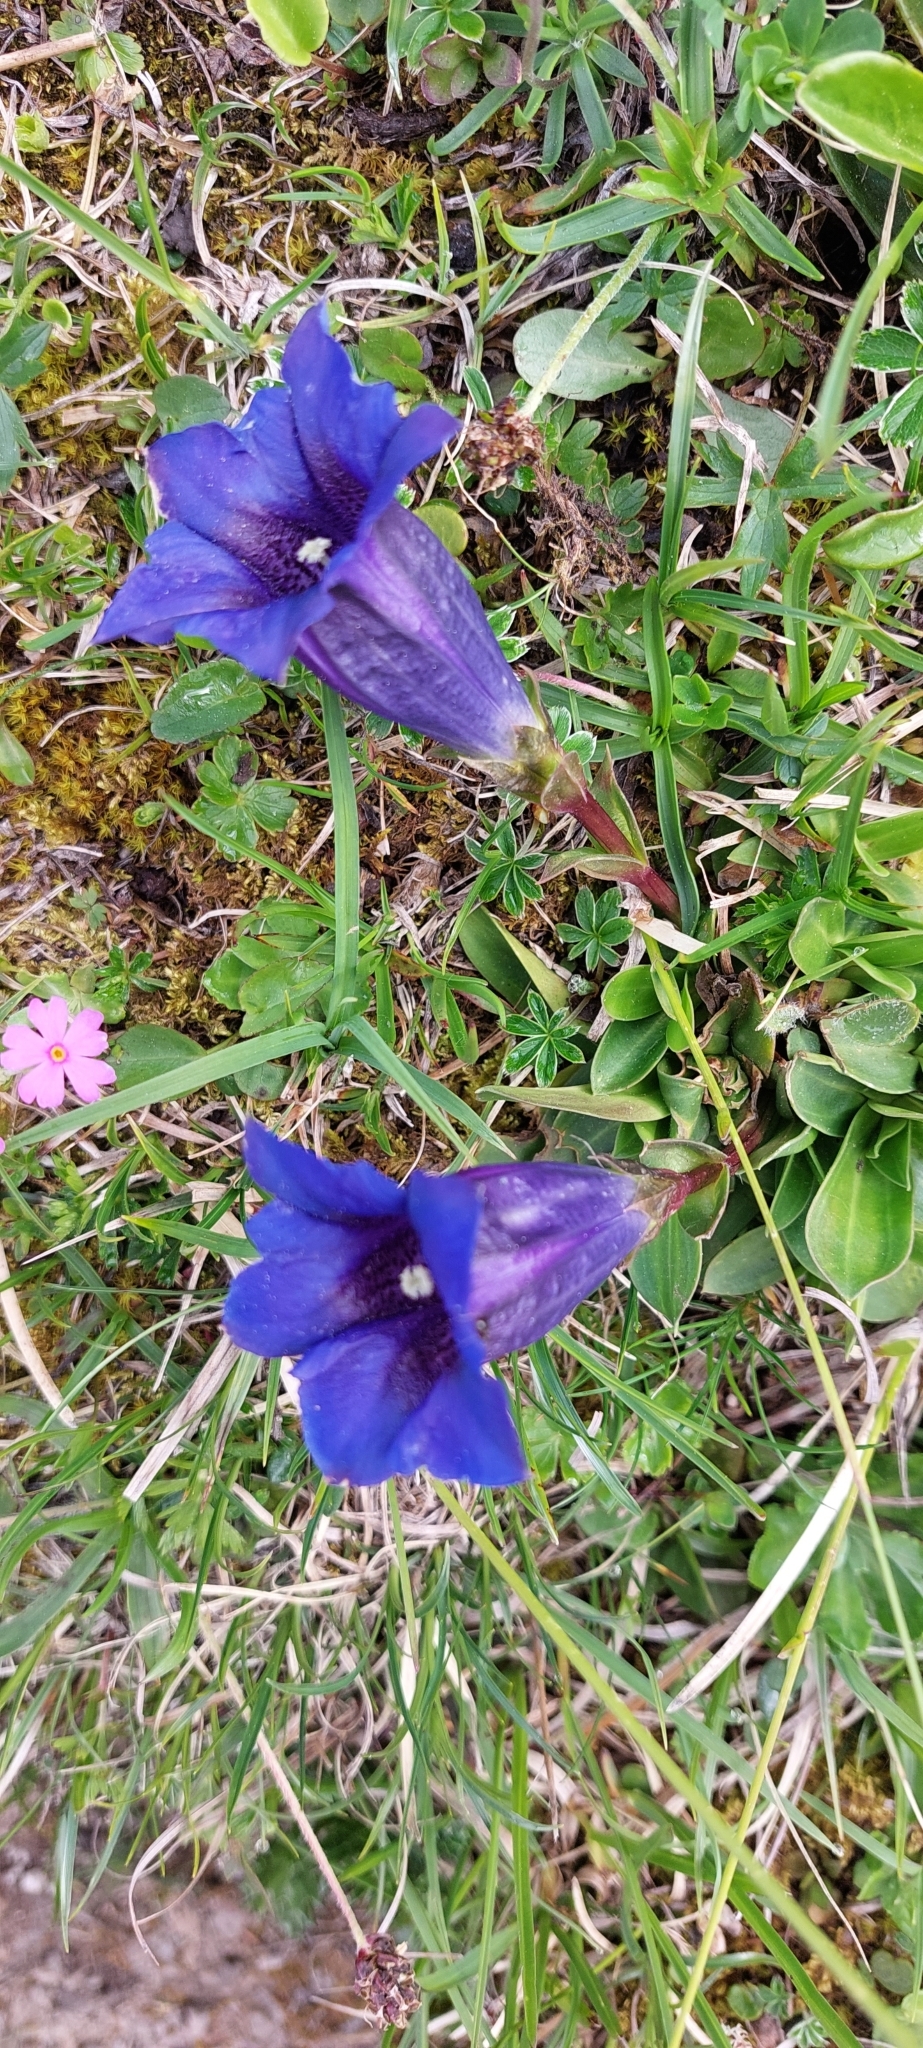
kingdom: Plantae
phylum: Tracheophyta
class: Magnoliopsida
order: Gentianales
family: Gentianaceae
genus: Gentiana
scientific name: Gentiana clusii
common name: Trumpet gentian
